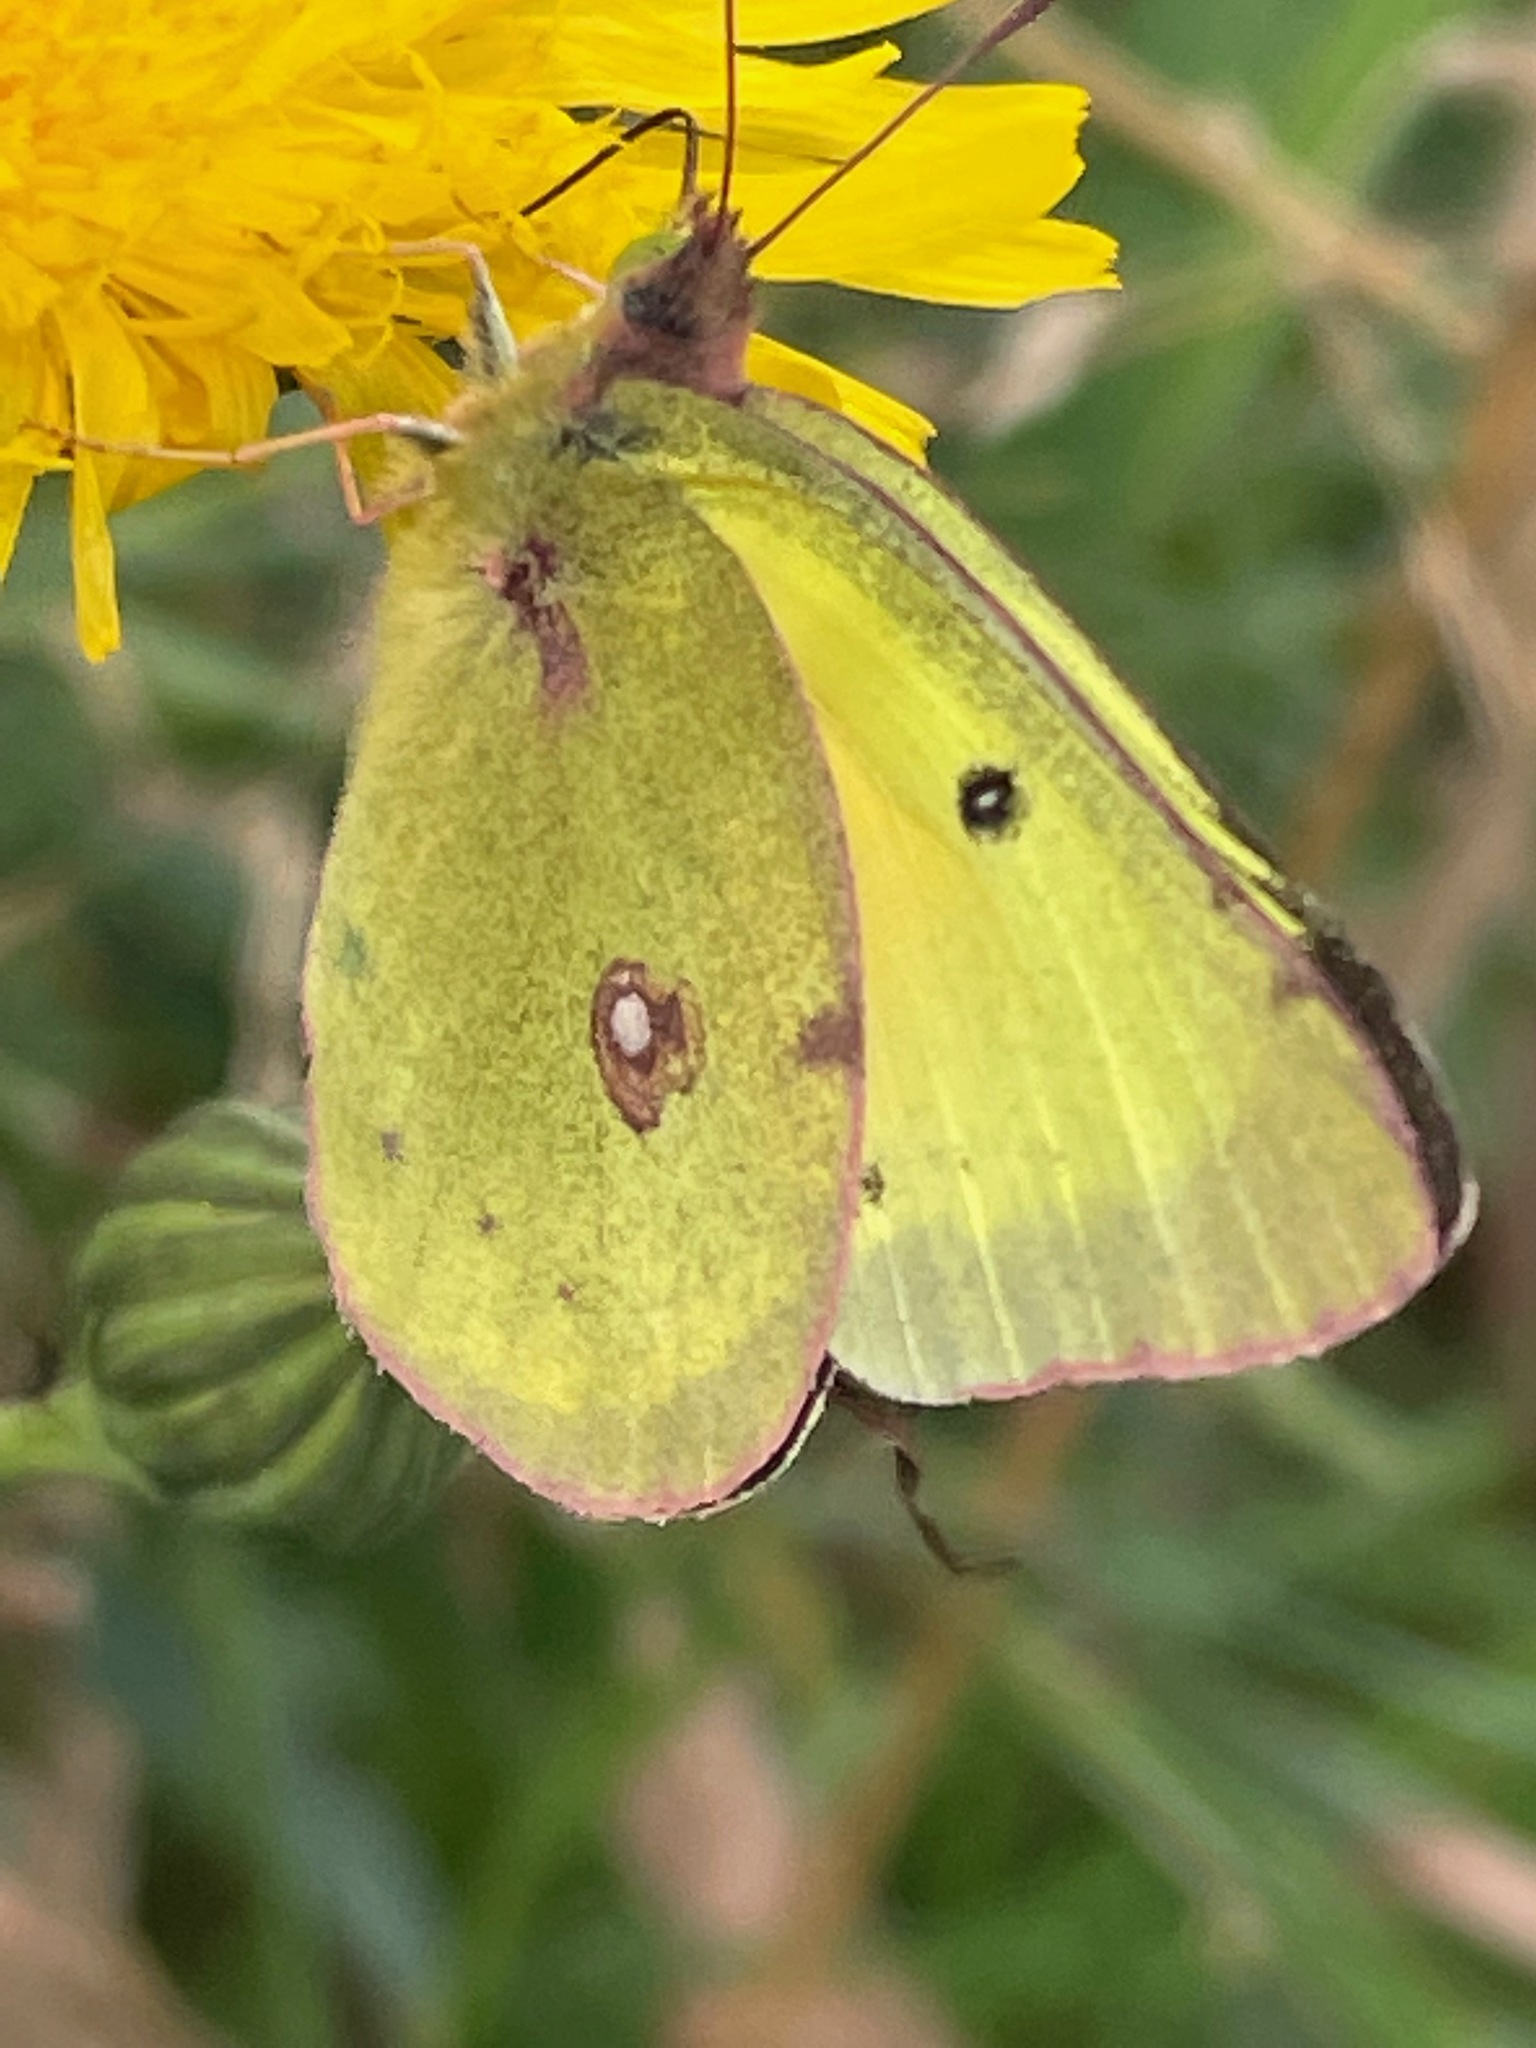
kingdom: Animalia
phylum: Arthropoda
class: Insecta
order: Lepidoptera
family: Pieridae
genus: Colias
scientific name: Colias philodice
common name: Clouded sulphur
